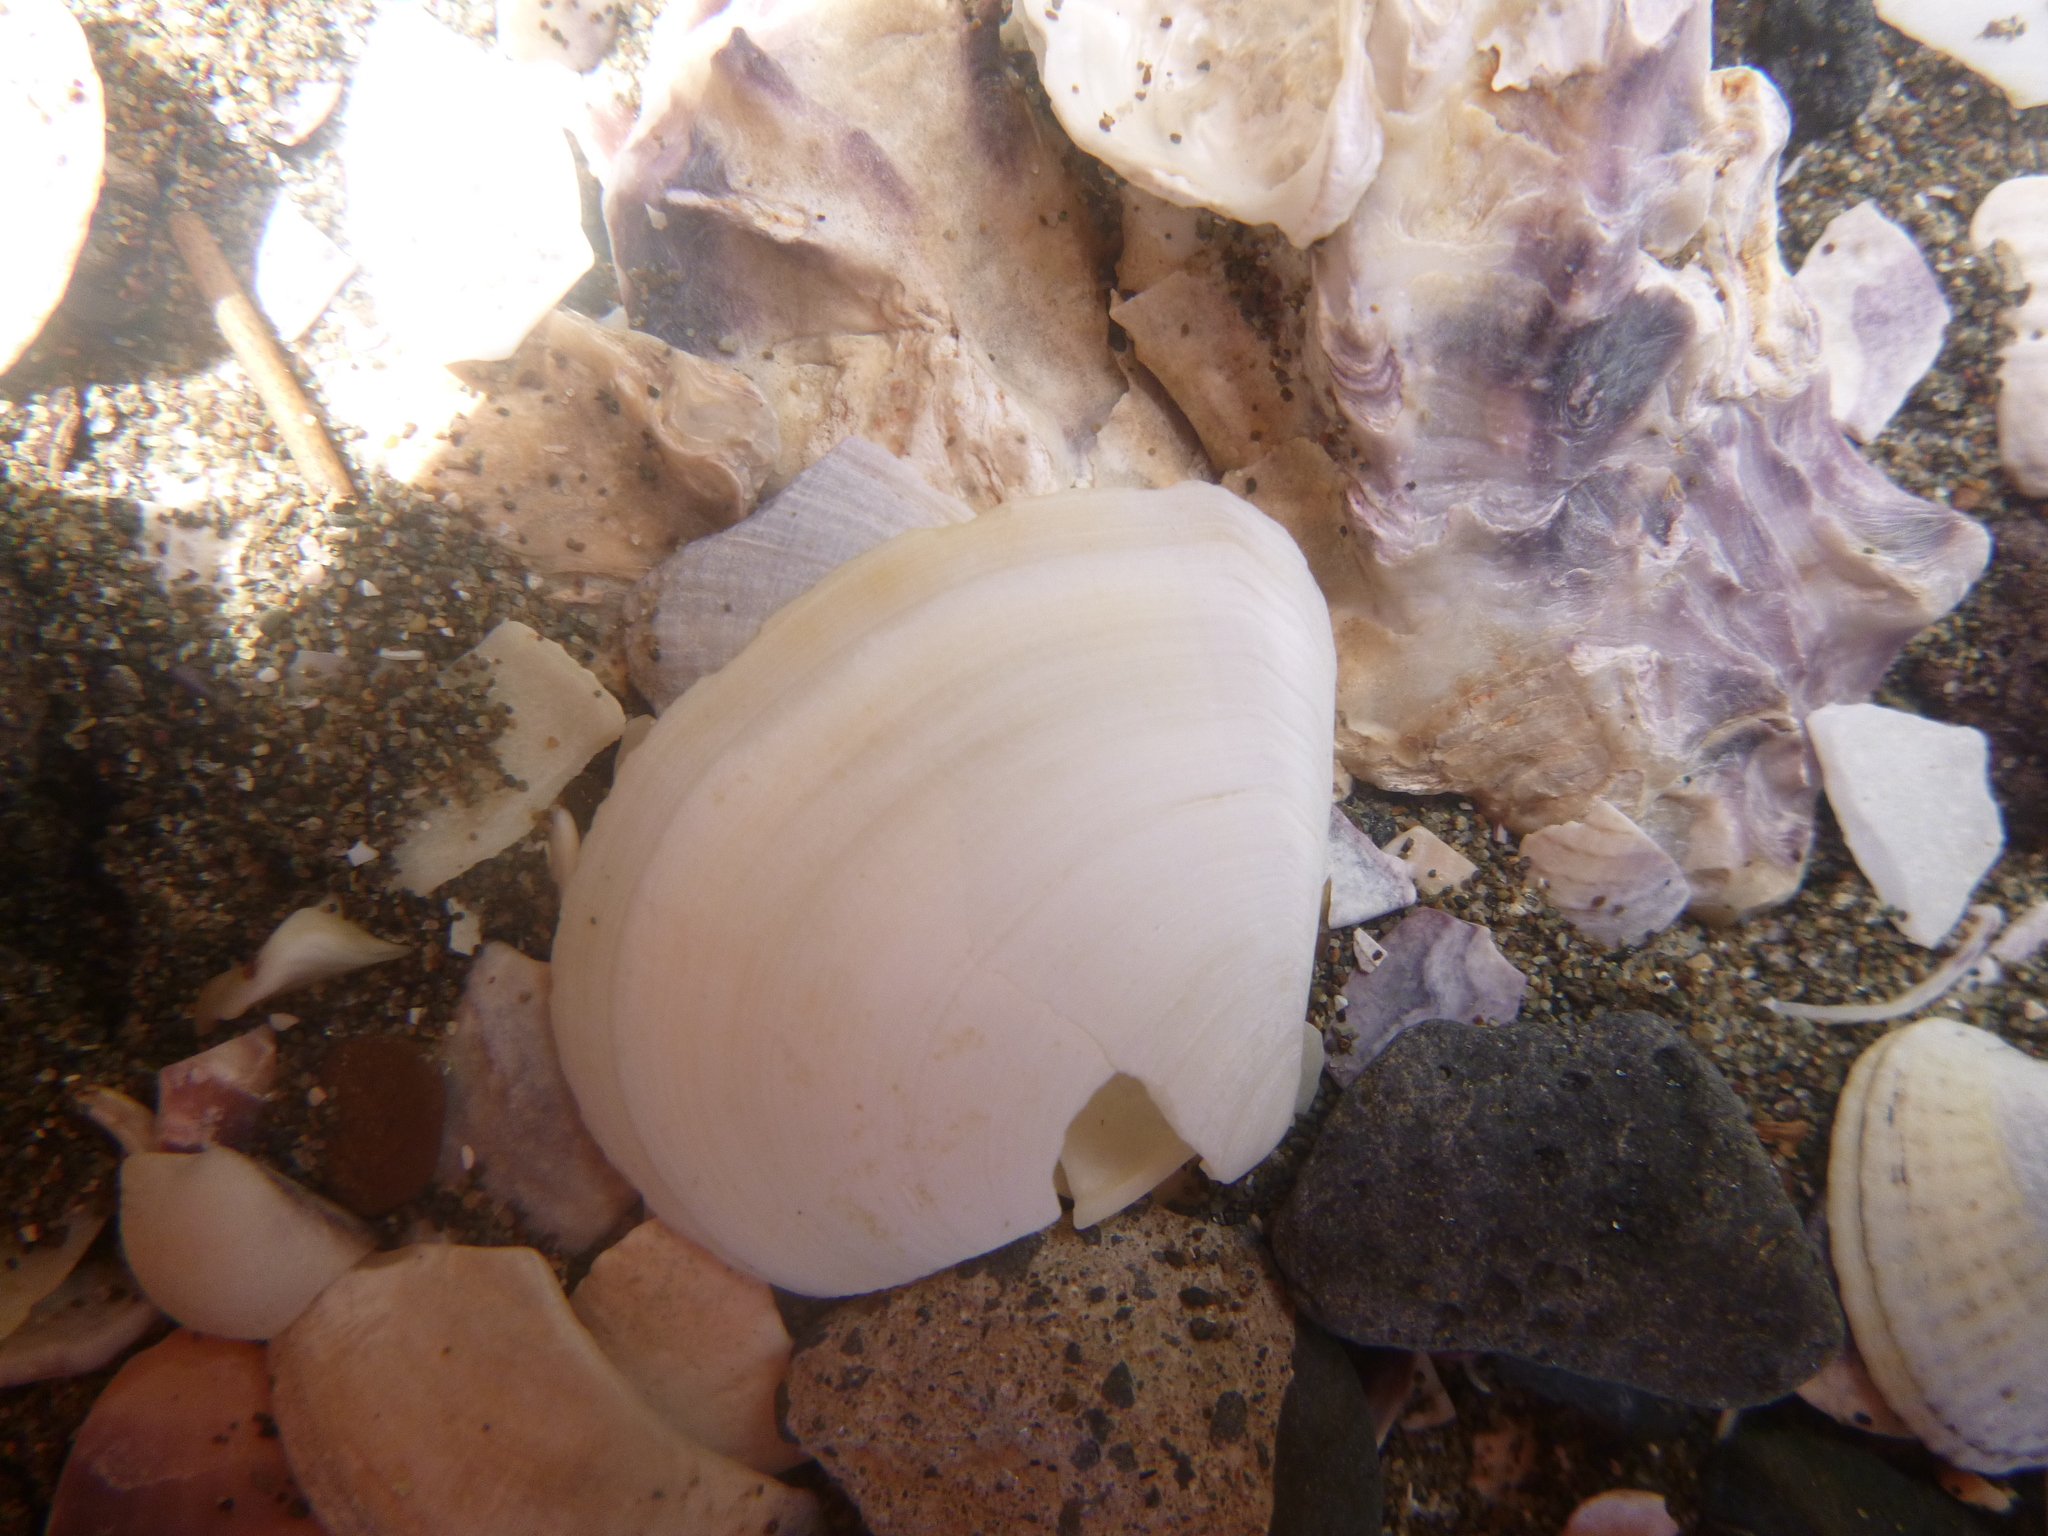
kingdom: Animalia
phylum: Mollusca
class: Bivalvia
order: Cardiida
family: Tellinidae
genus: Macomona
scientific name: Macomona liliana
